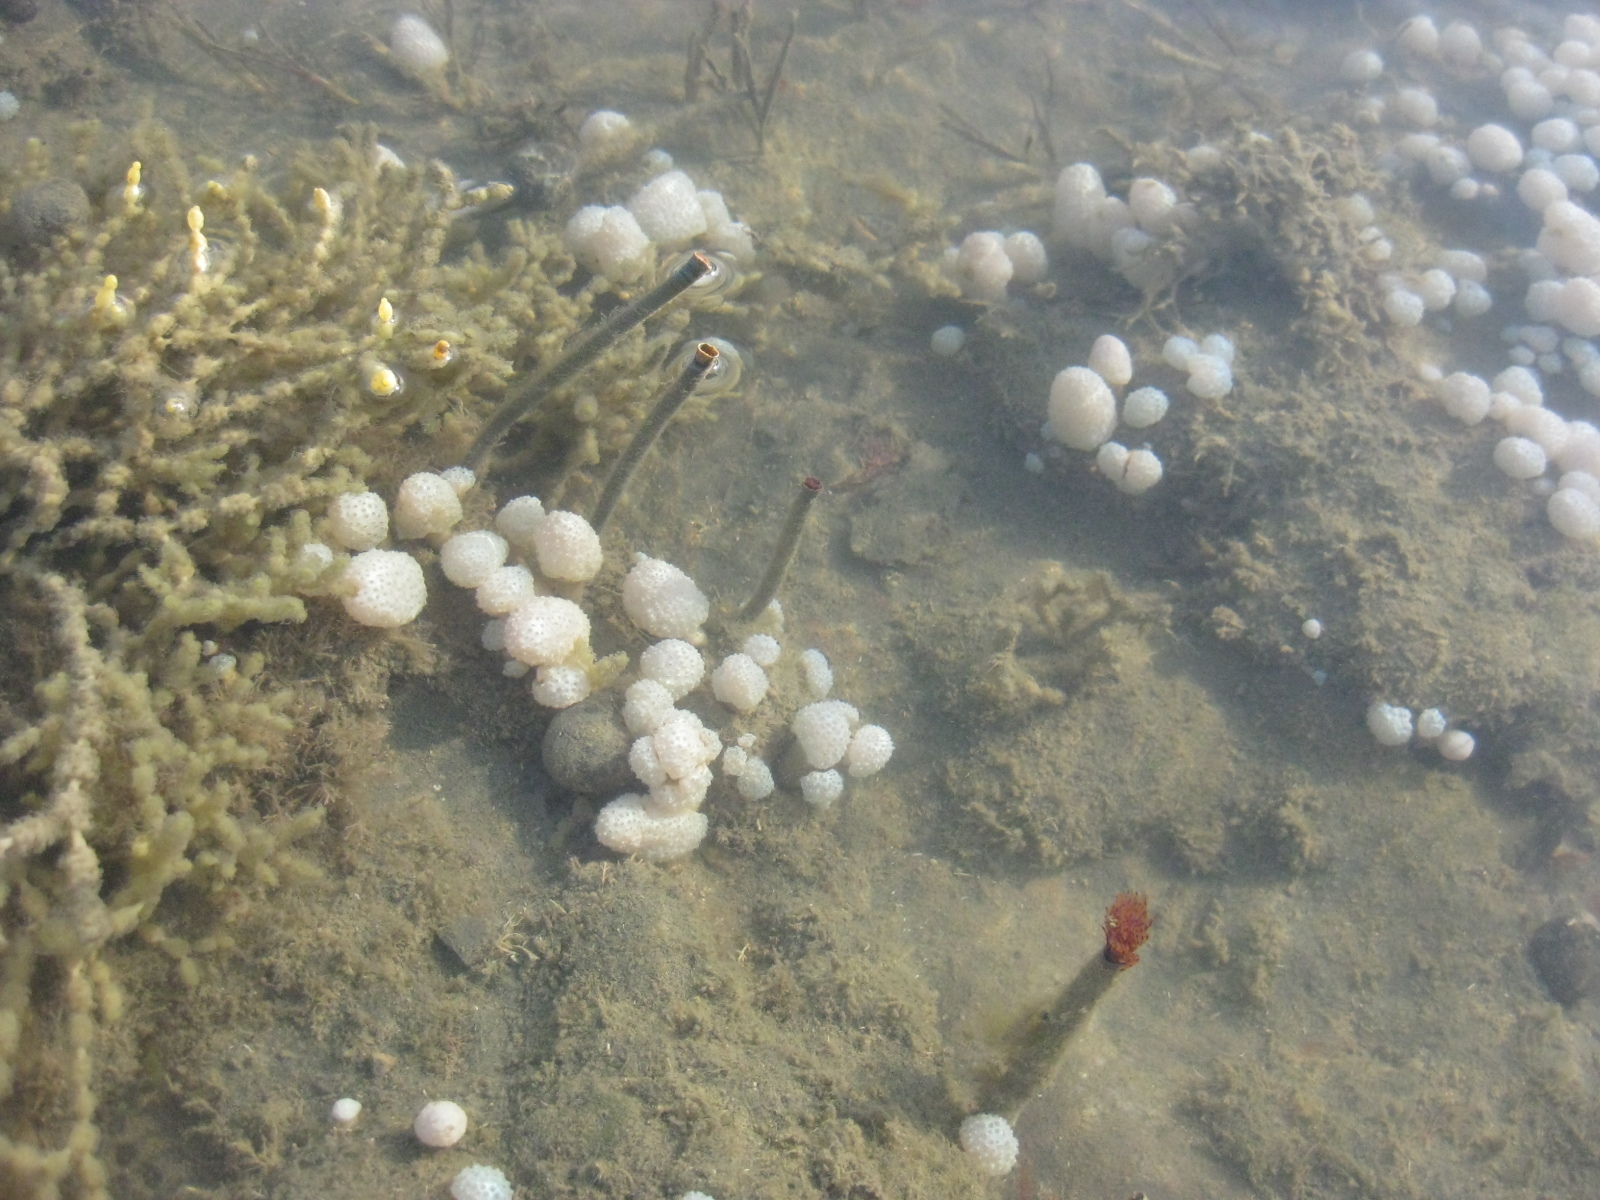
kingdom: Animalia
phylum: Annelida
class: Polychaeta
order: Sabellida
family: Sabellidae
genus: Sabella
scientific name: Sabella spallanzanii
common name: Feather duster worm
